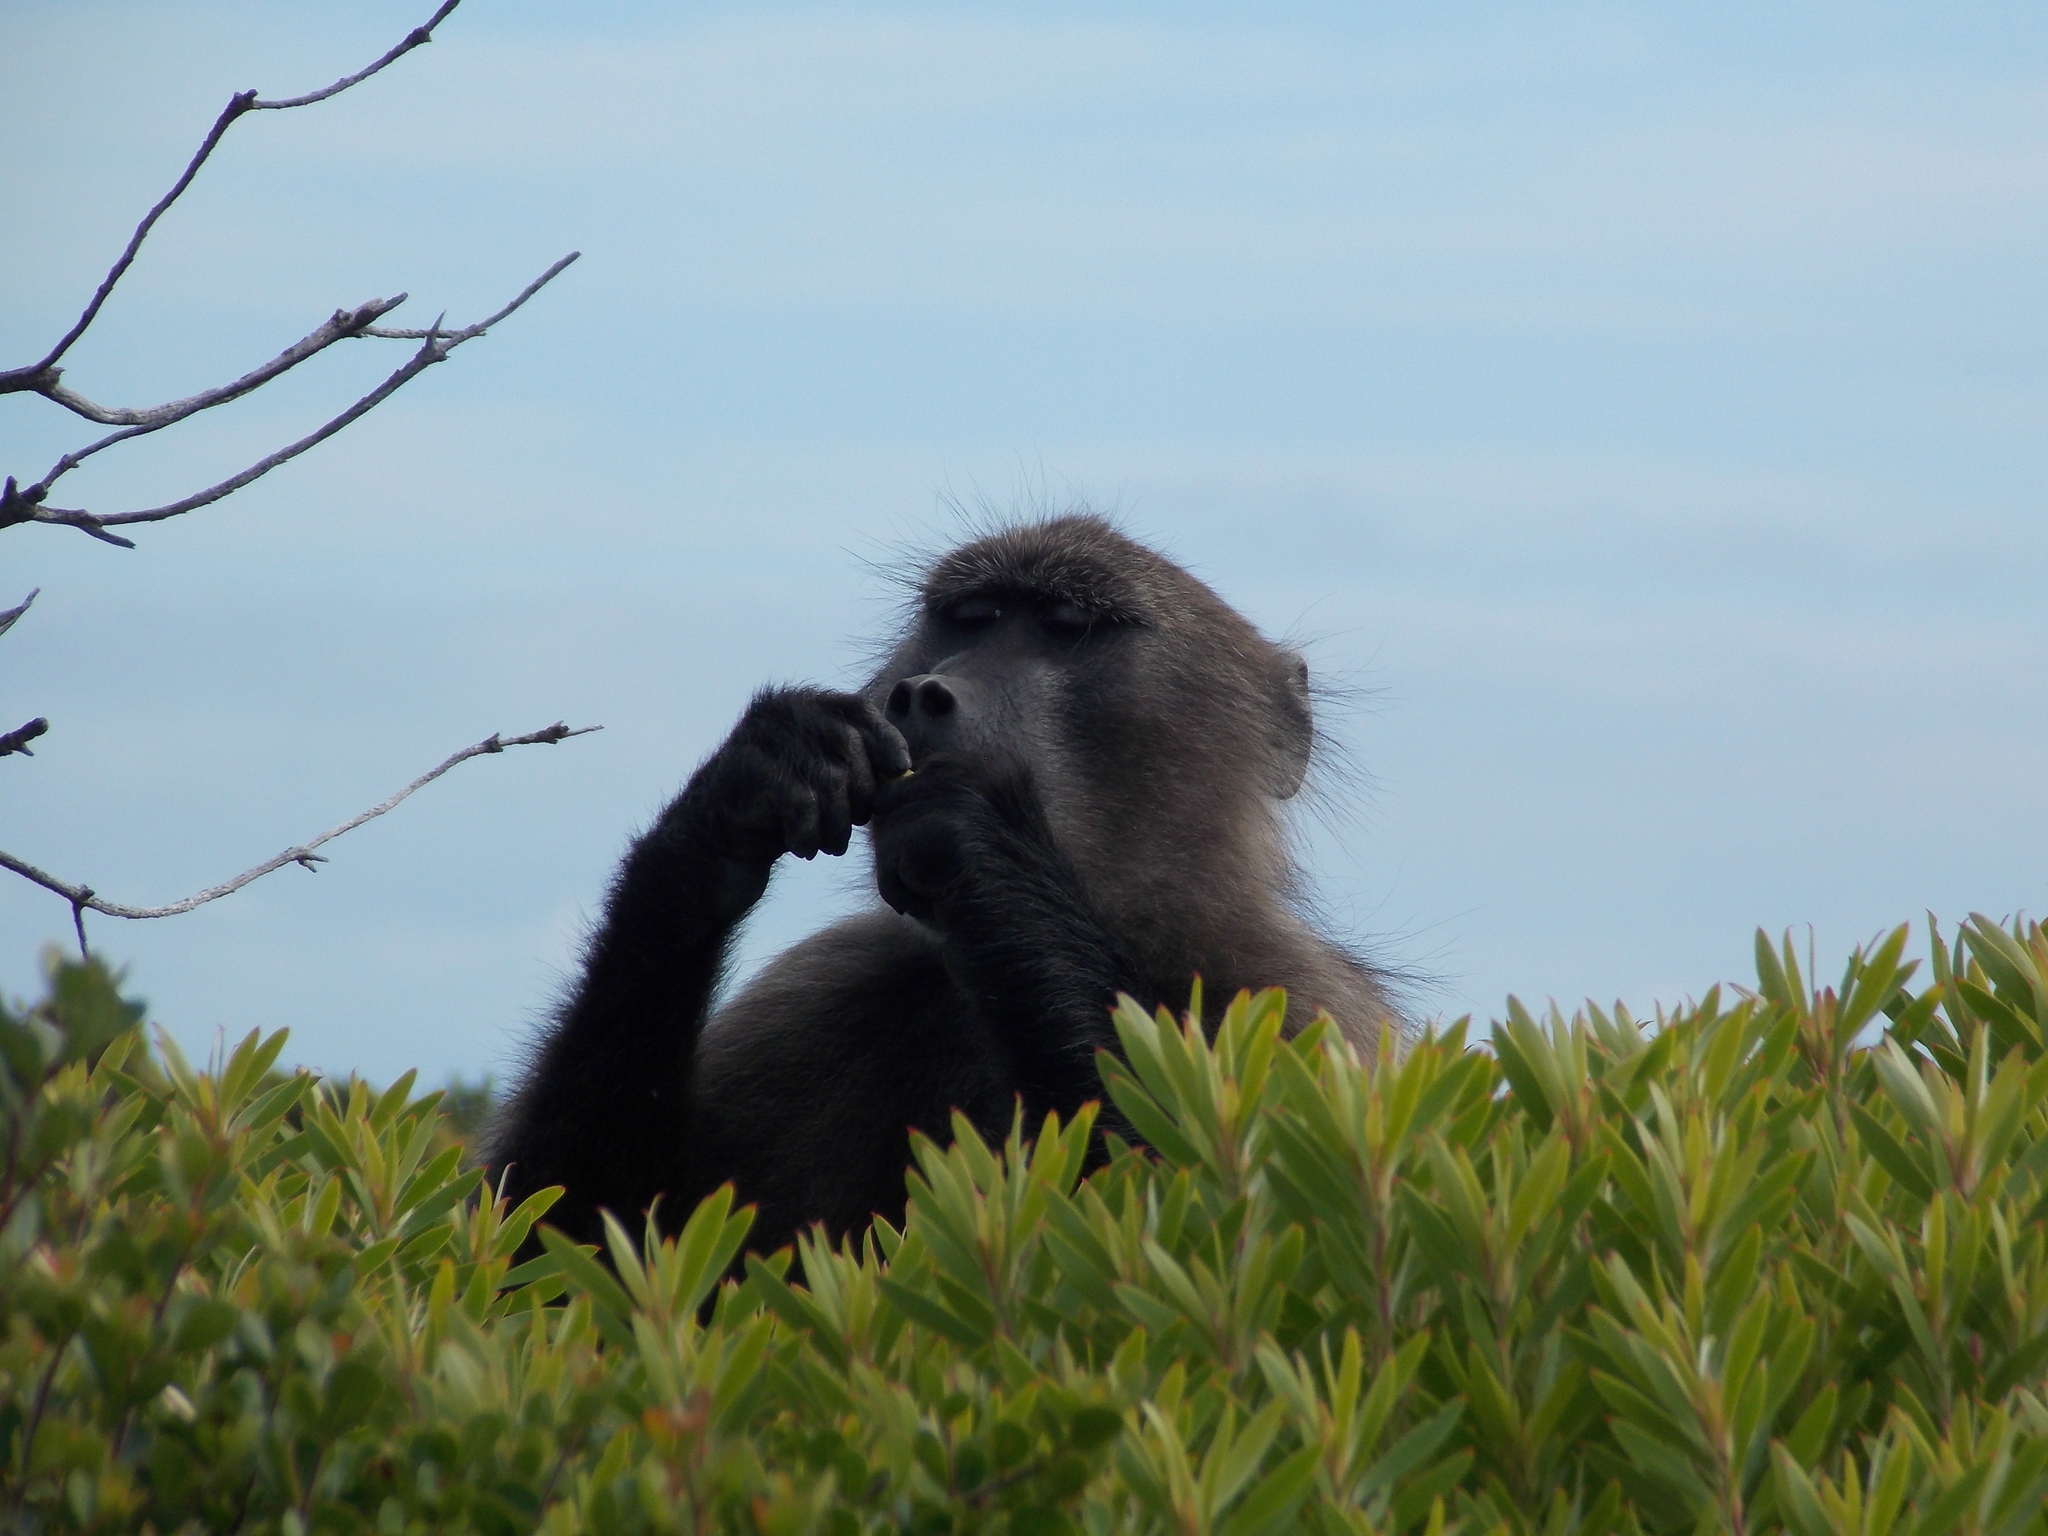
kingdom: Animalia
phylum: Chordata
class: Mammalia
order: Primates
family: Cercopithecidae
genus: Papio
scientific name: Papio ursinus
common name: Chacma baboon
